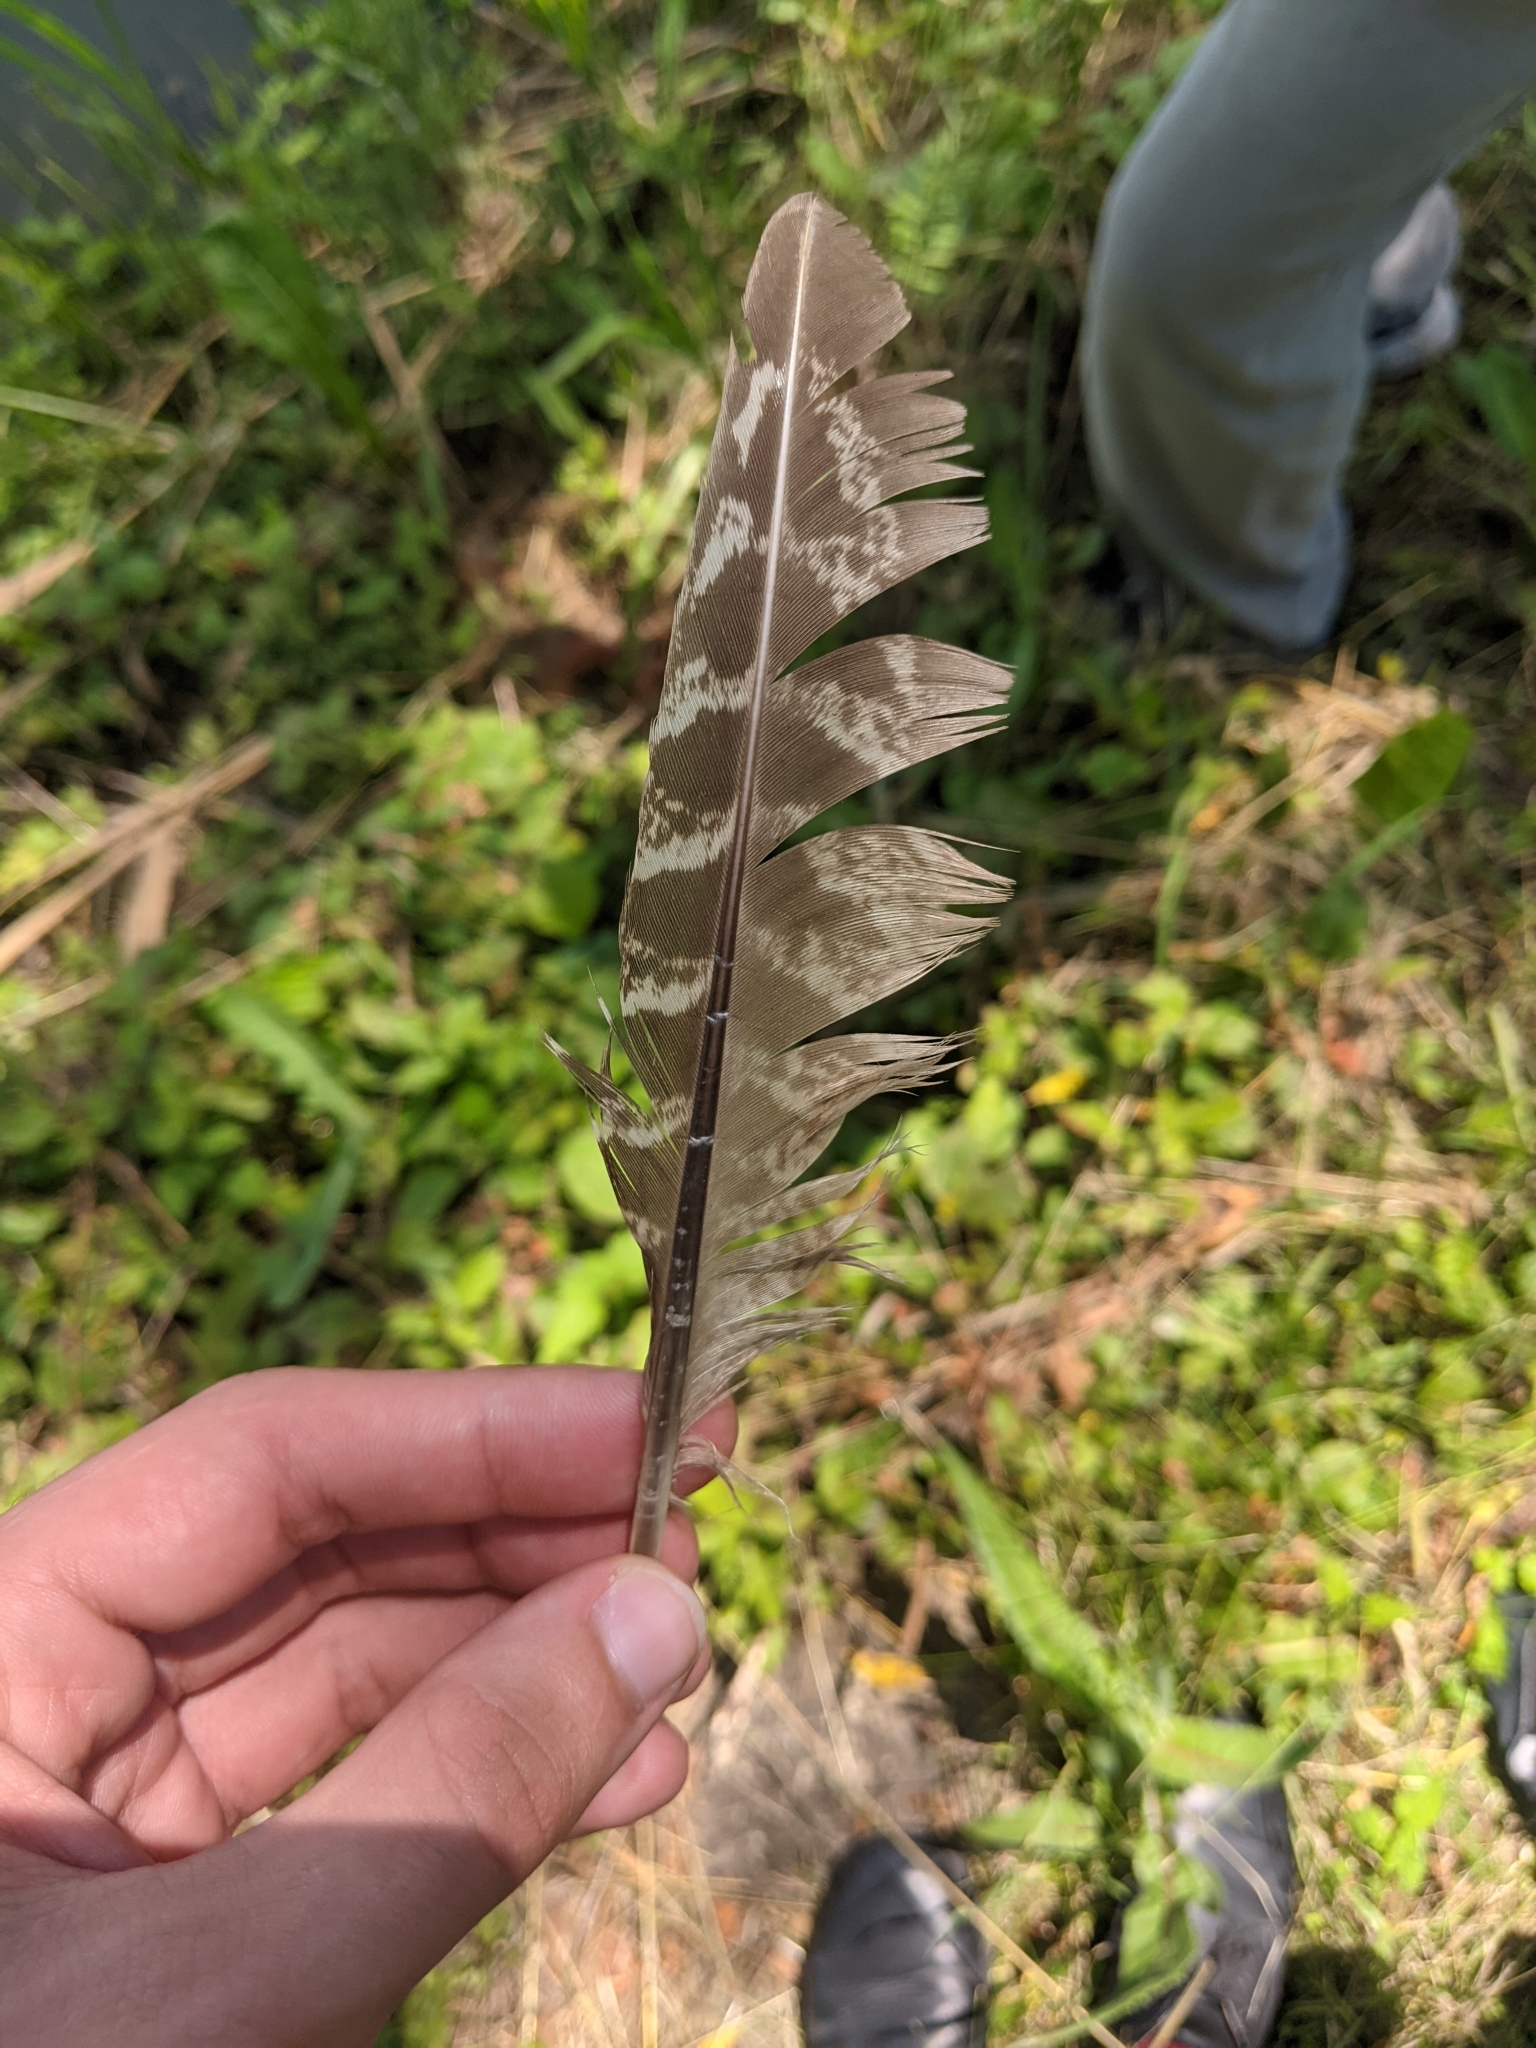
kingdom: Animalia
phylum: Chordata
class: Aves
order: Galliformes
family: Phasianidae
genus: Phasianus
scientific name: Phasianus colchicus
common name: Common pheasant
